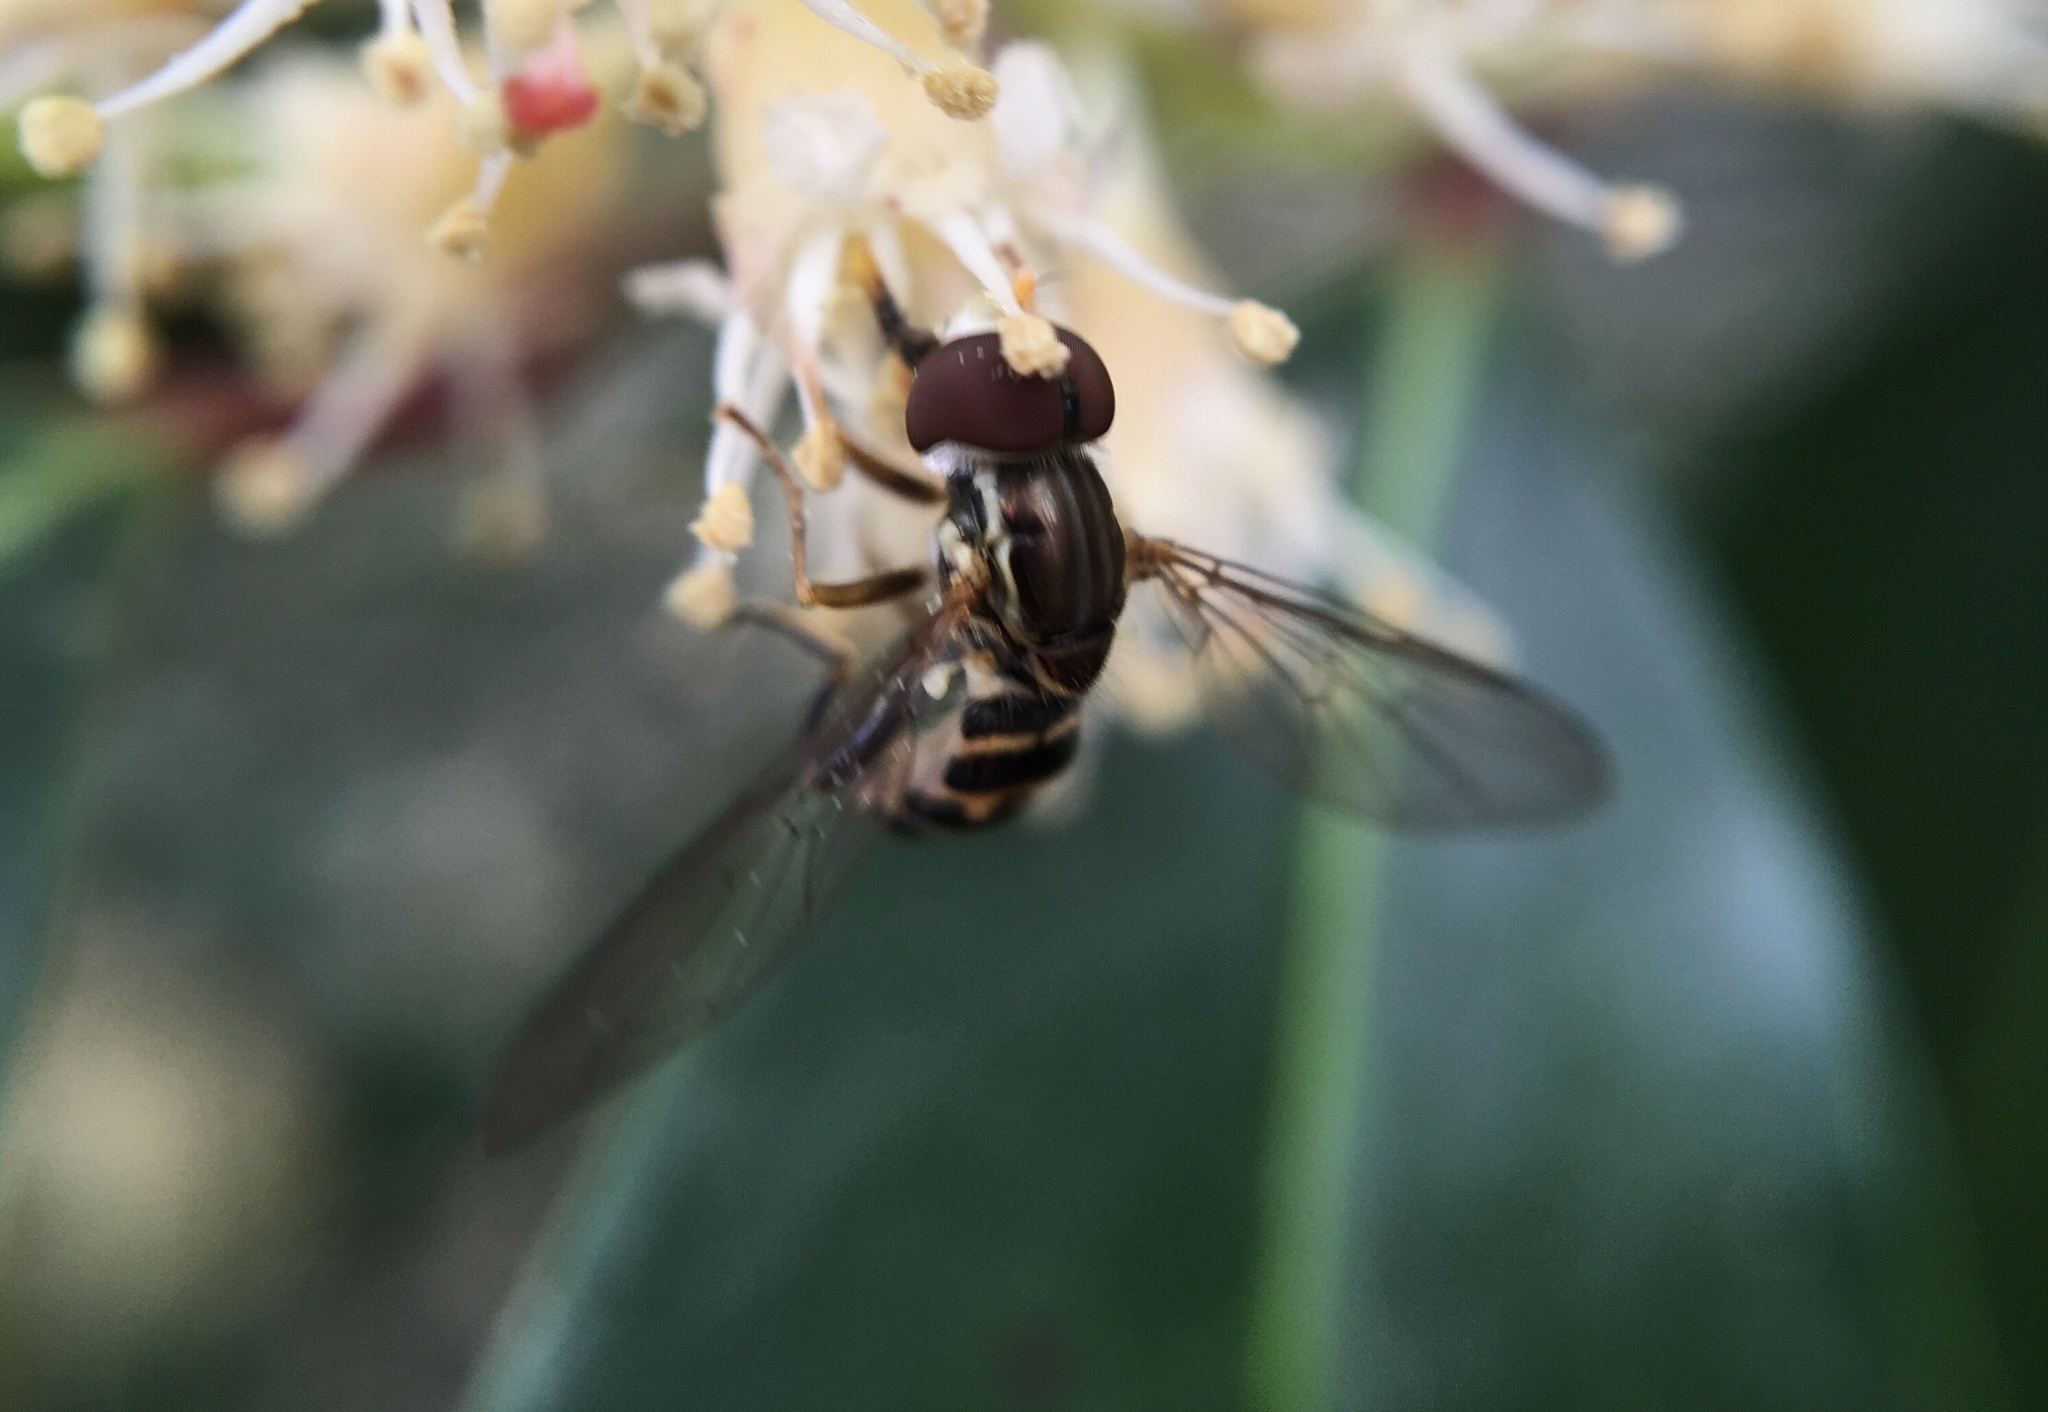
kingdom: Animalia
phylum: Arthropoda
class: Insecta
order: Diptera
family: Syrphidae
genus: Toxomerus
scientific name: Toxomerus geminatus
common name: Eastern calligrapher
